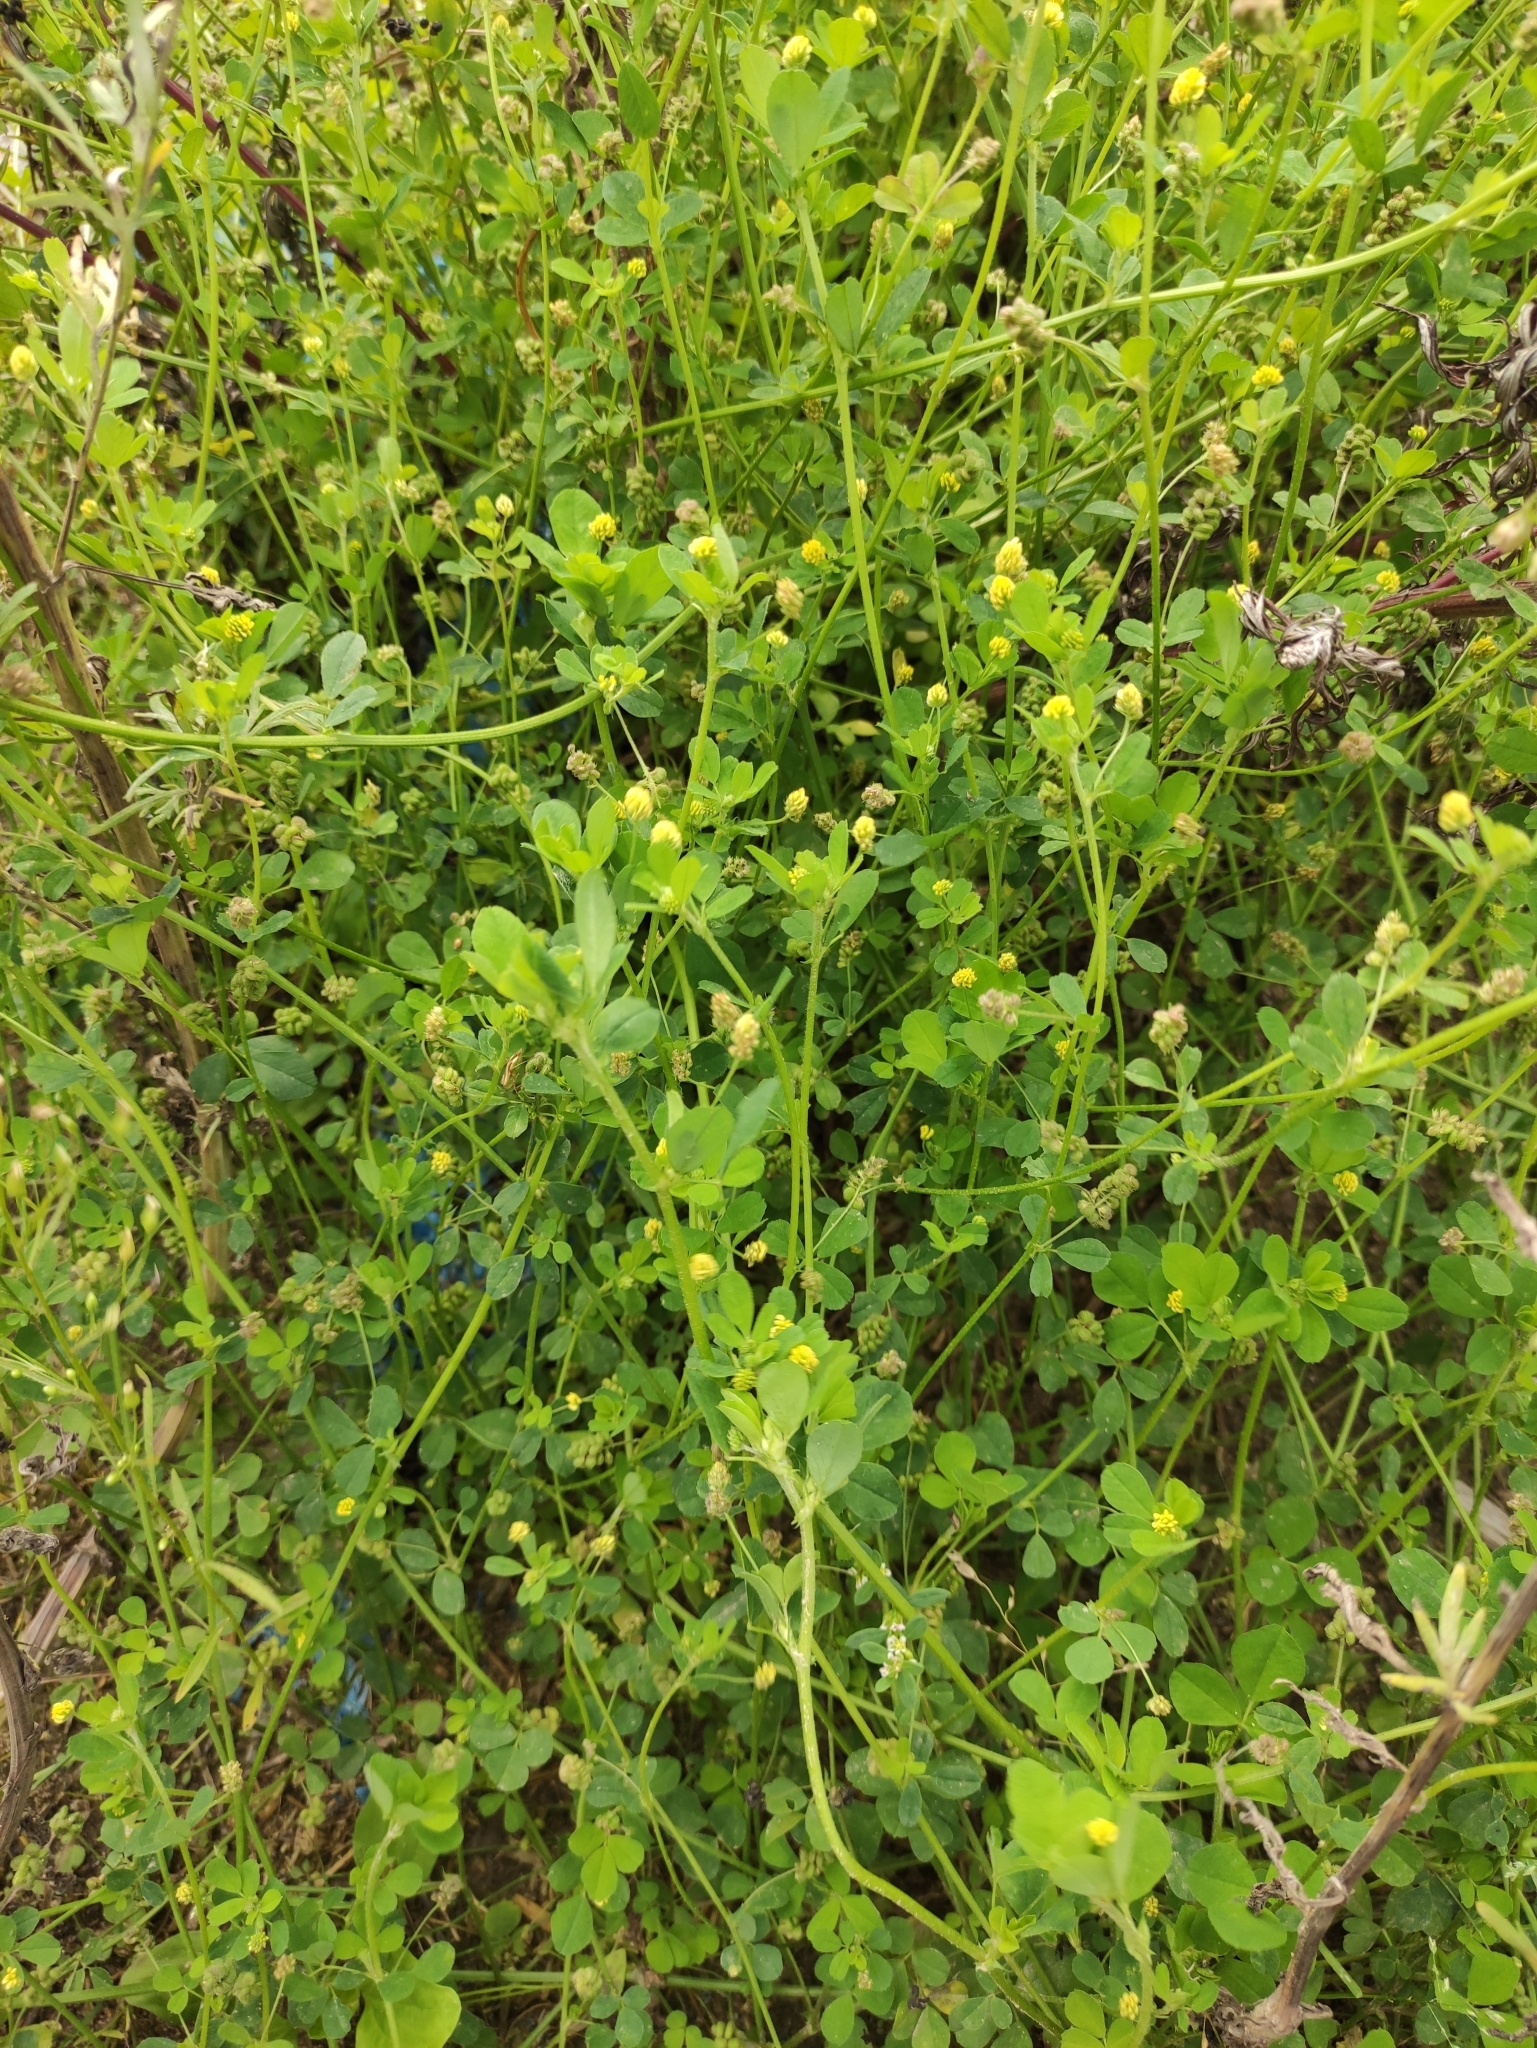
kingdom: Plantae
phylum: Tracheophyta
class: Magnoliopsida
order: Fabales
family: Fabaceae
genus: Medicago
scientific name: Medicago lupulina
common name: Black medick
